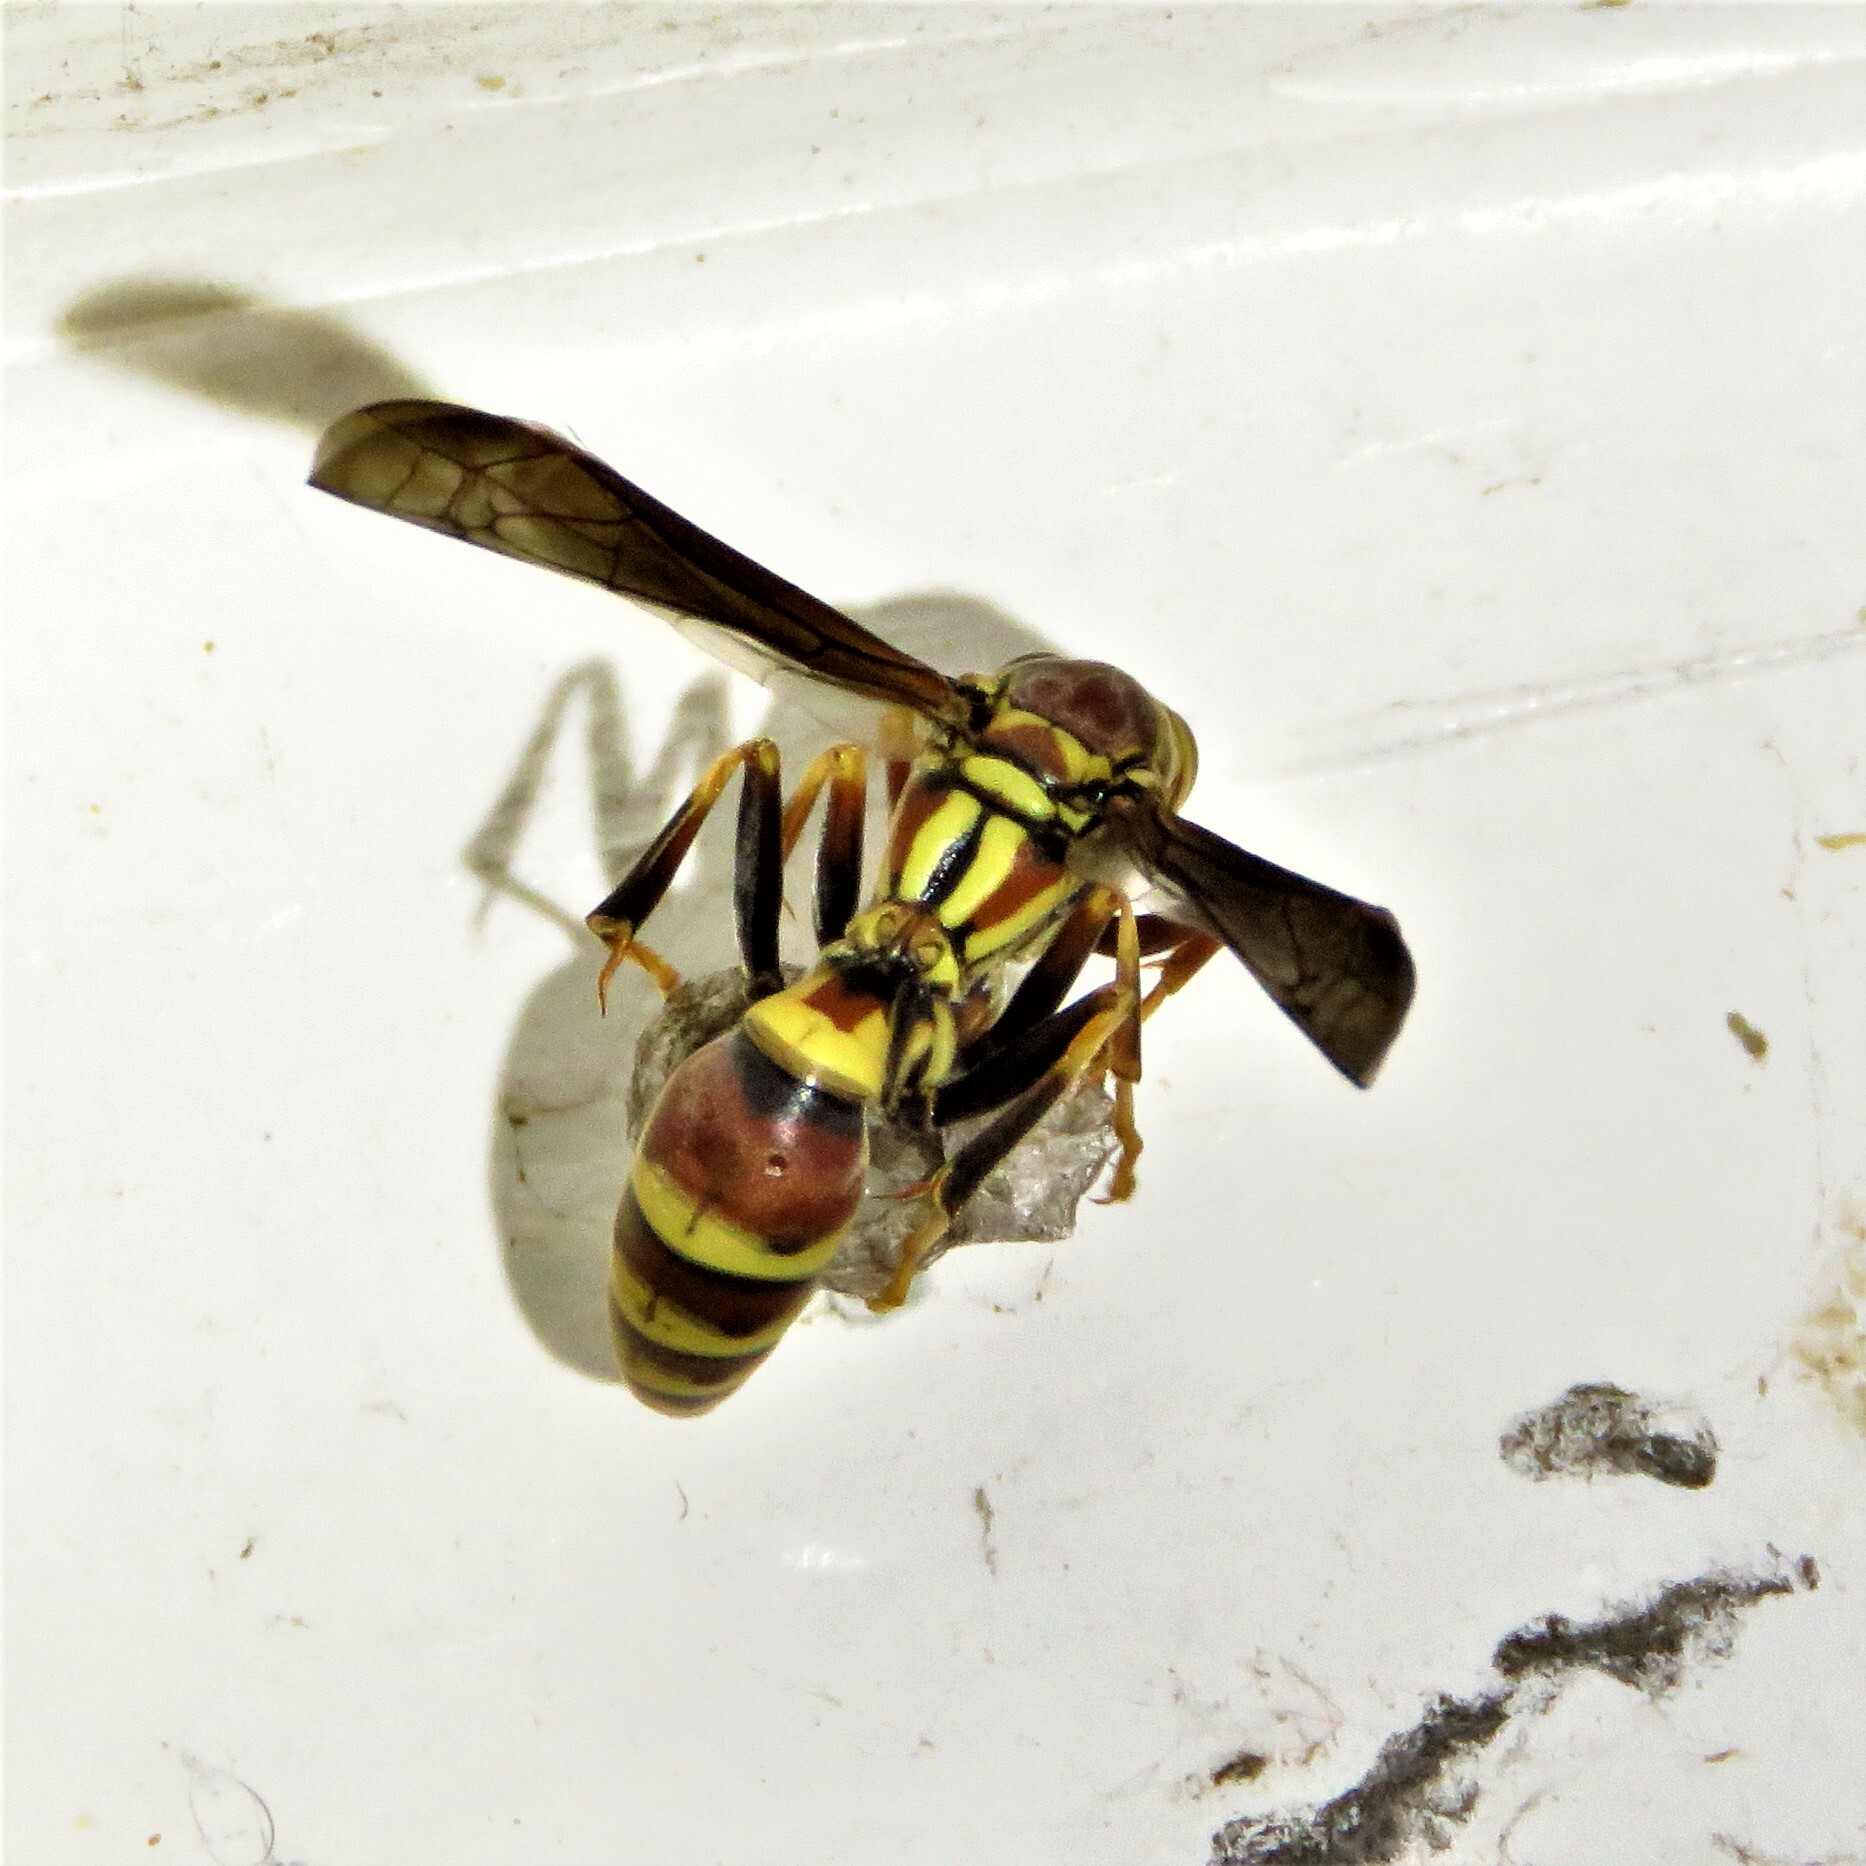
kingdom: Animalia
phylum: Arthropoda
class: Insecta
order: Hymenoptera
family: Eumenidae
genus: Polistes
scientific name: Polistes exclamans
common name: Paper wasp
